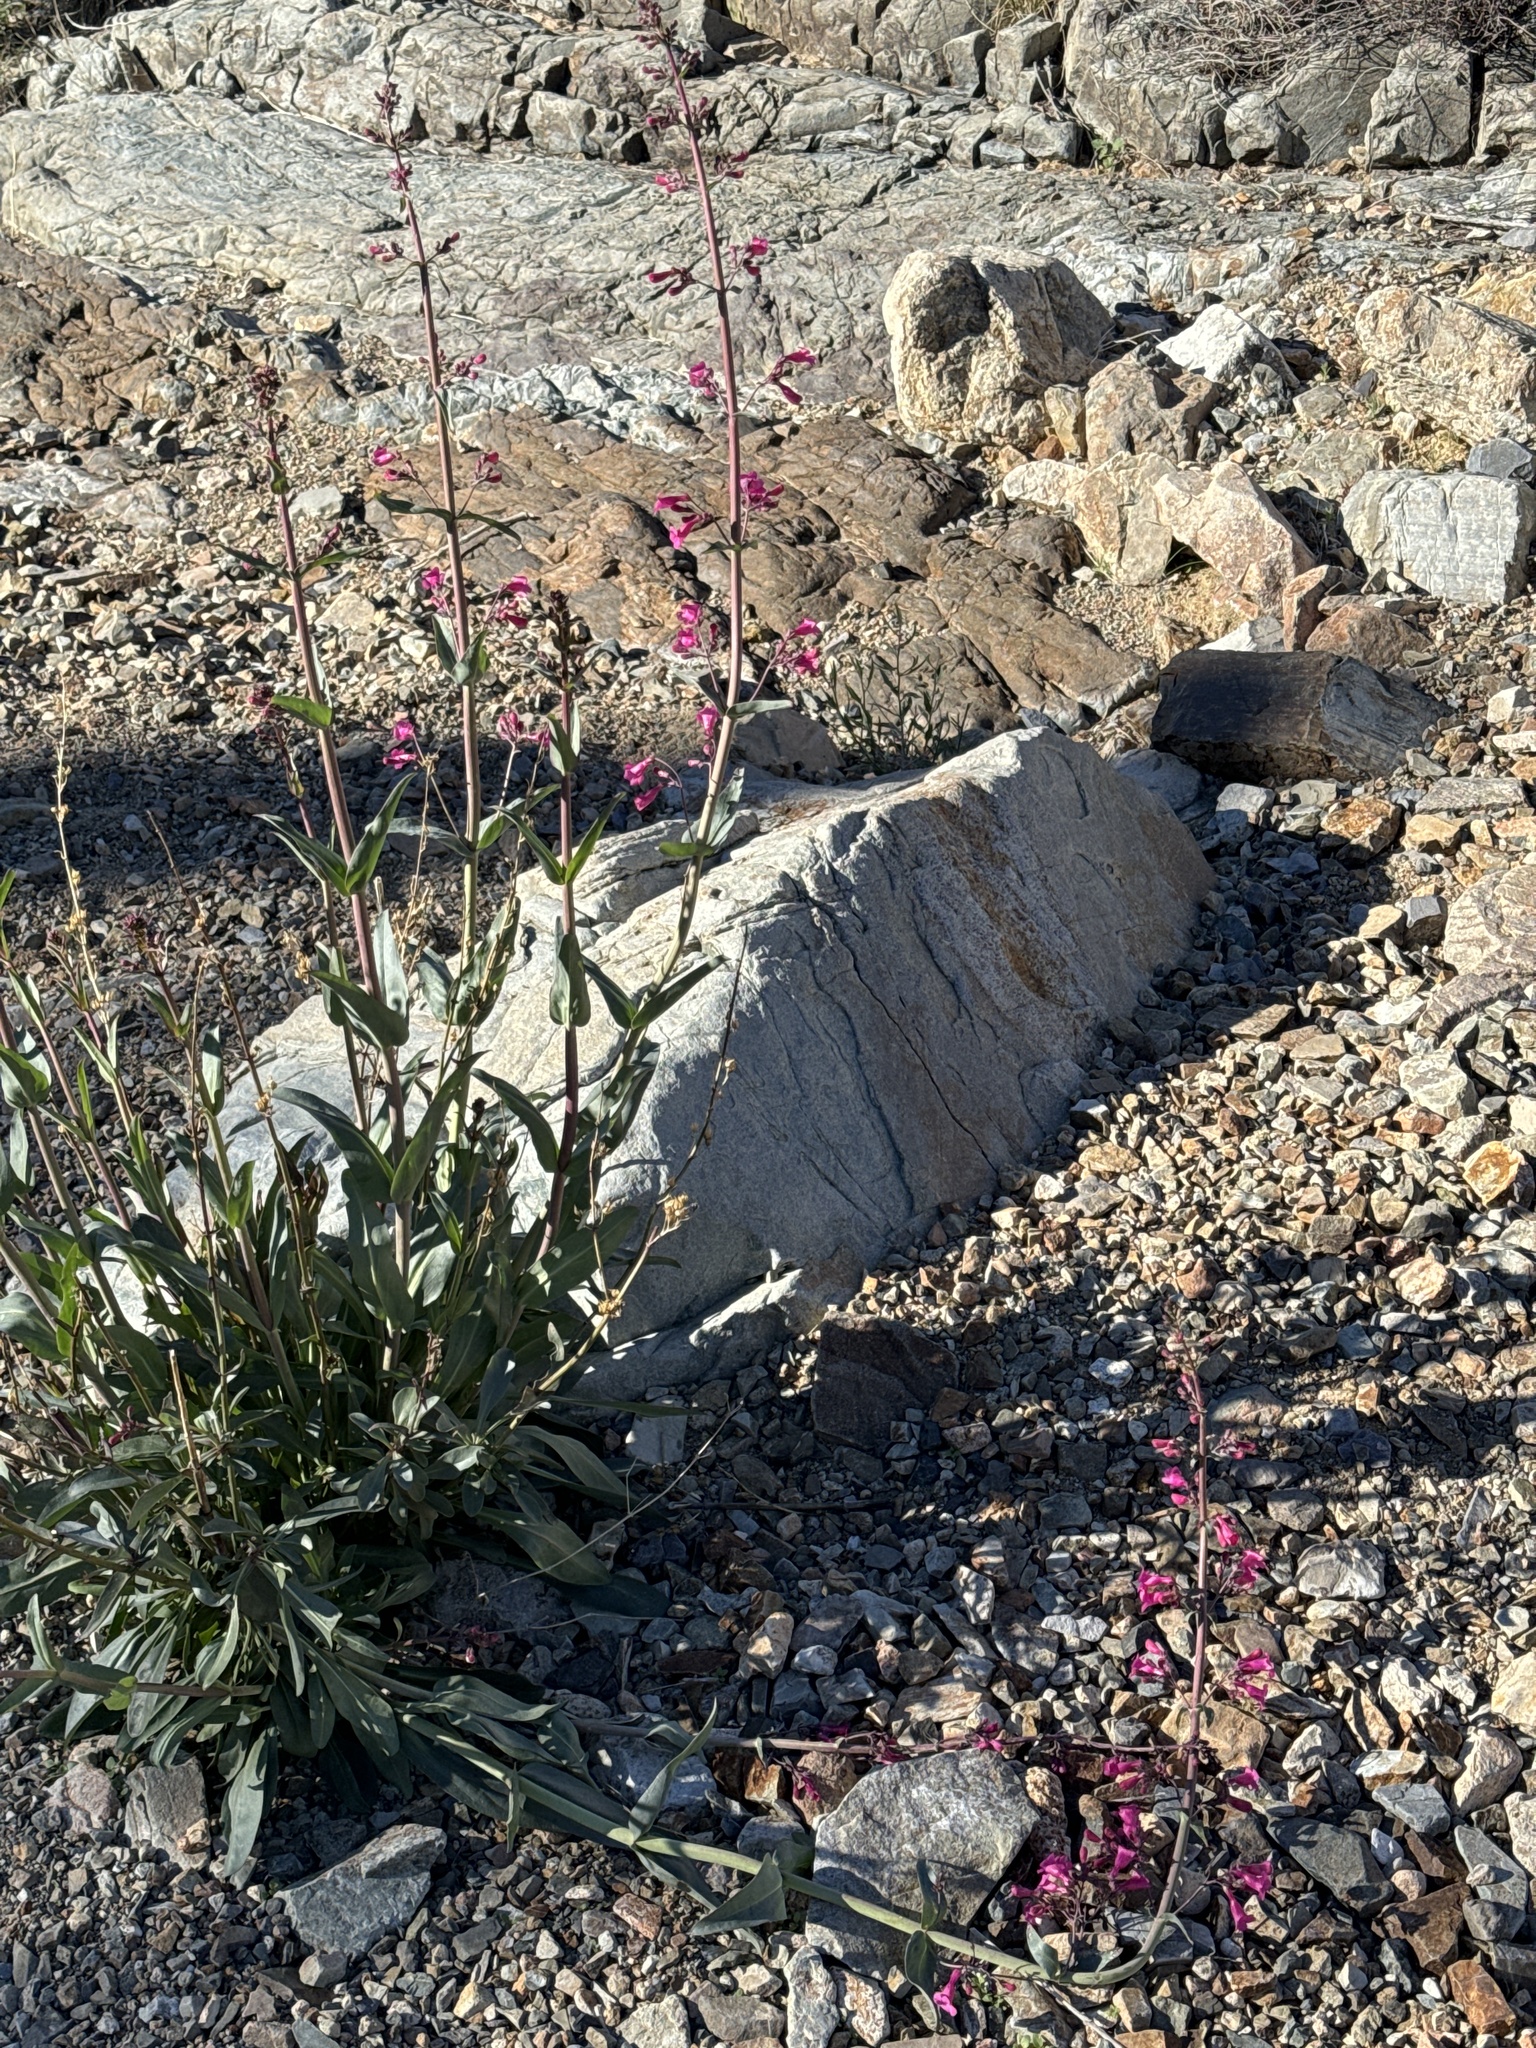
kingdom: Plantae
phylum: Tracheophyta
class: Magnoliopsida
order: Lamiales
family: Plantaginaceae
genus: Penstemon
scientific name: Penstemon parryi
